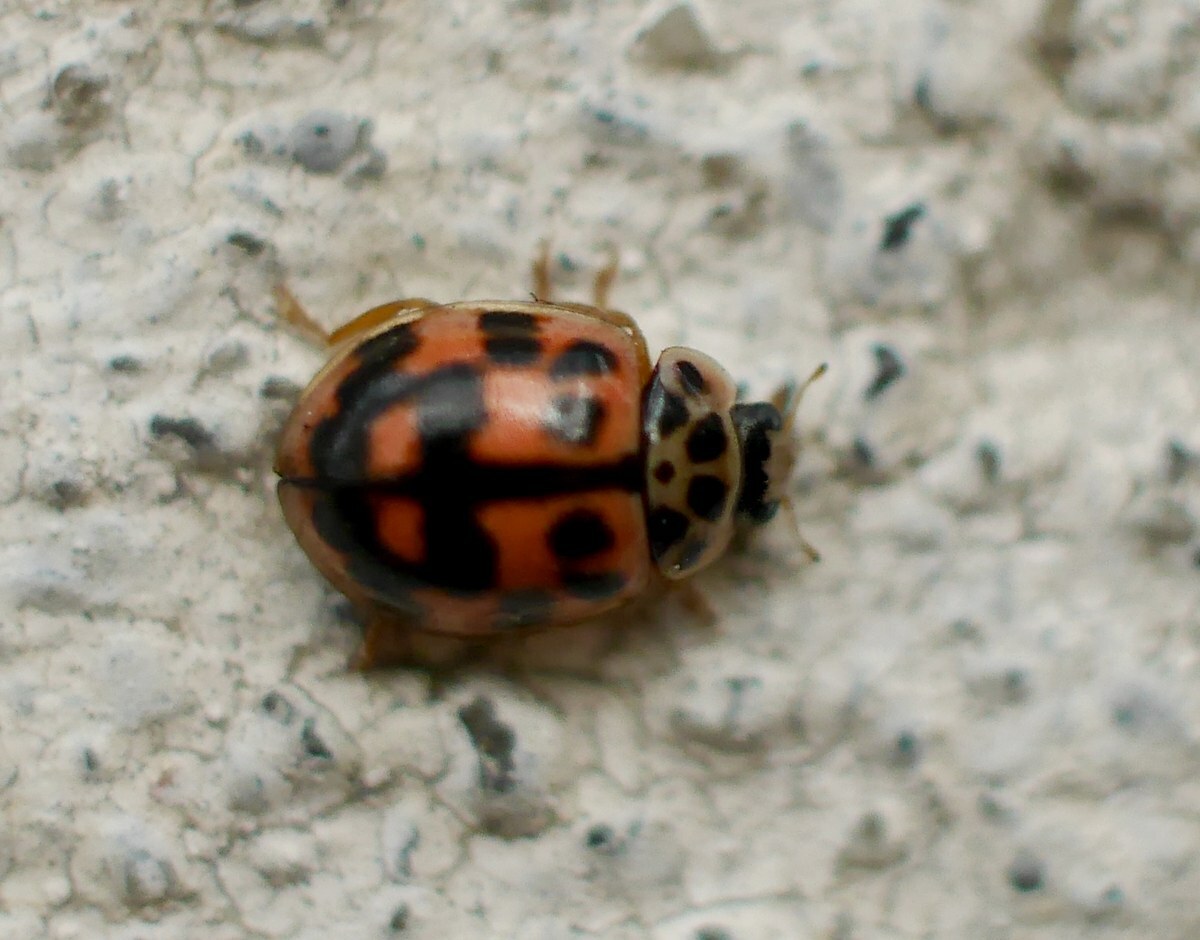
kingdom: Animalia
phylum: Arthropoda
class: Insecta
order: Coleoptera
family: Coccinellidae
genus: Oenopia
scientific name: Oenopia conglobata
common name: Ladybird beetle
